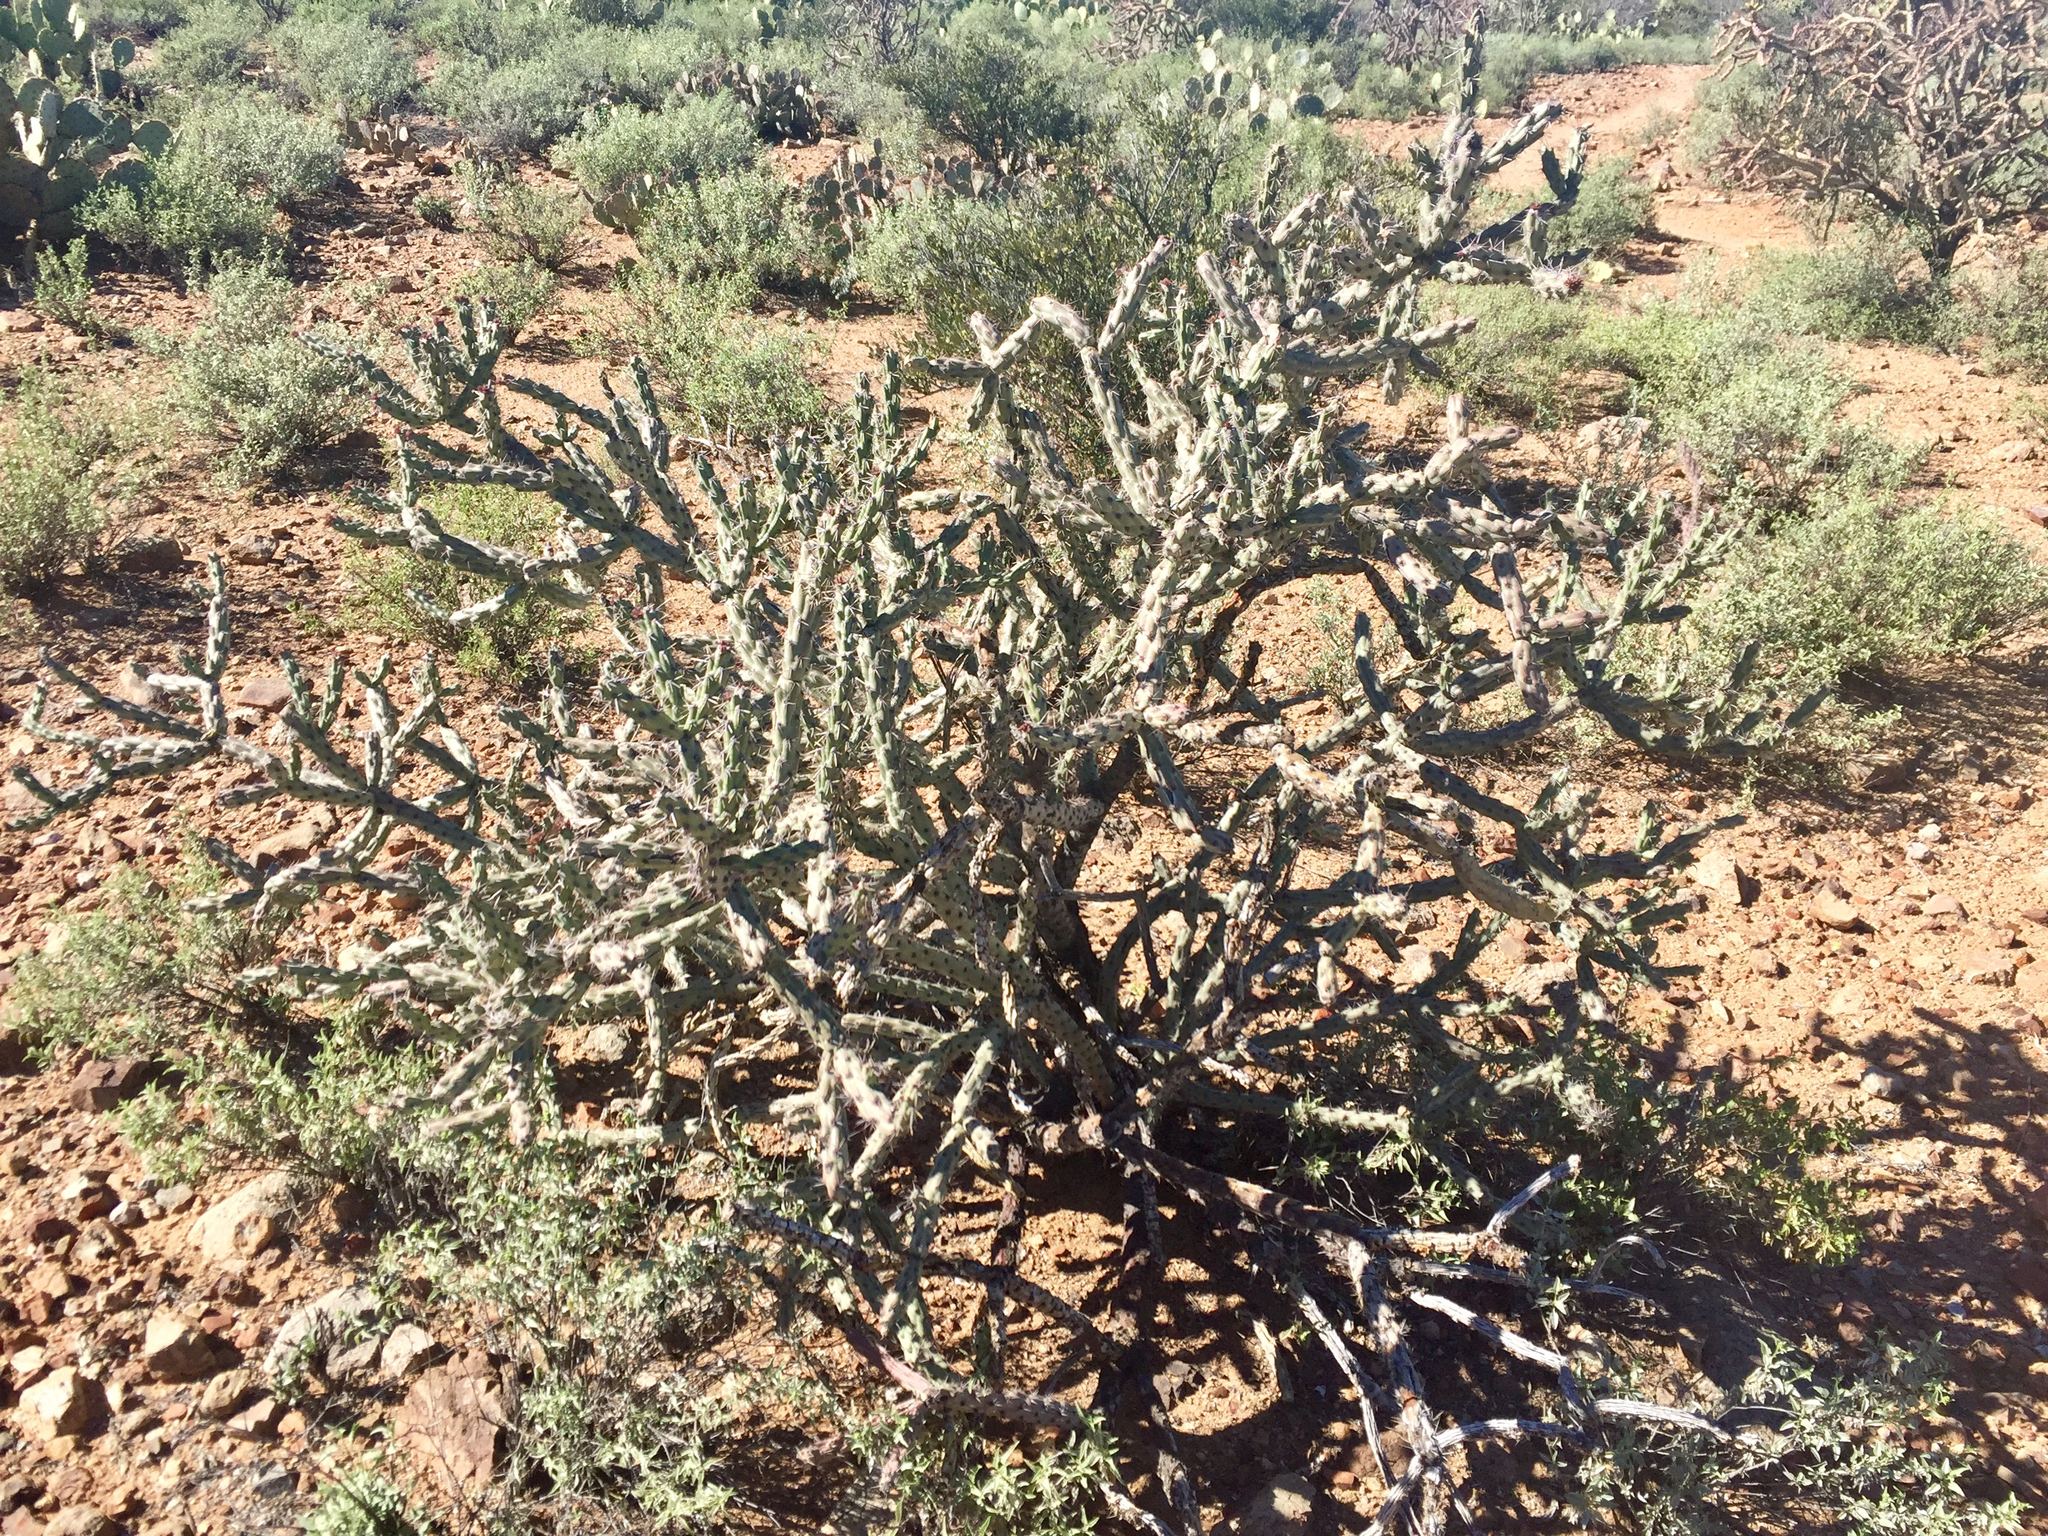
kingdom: Plantae
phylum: Tracheophyta
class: Magnoliopsida
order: Caryophyllales
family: Cactaceae
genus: Cylindropuntia
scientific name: Cylindropuntia acanthocarpa
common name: Buckhorn cholla
